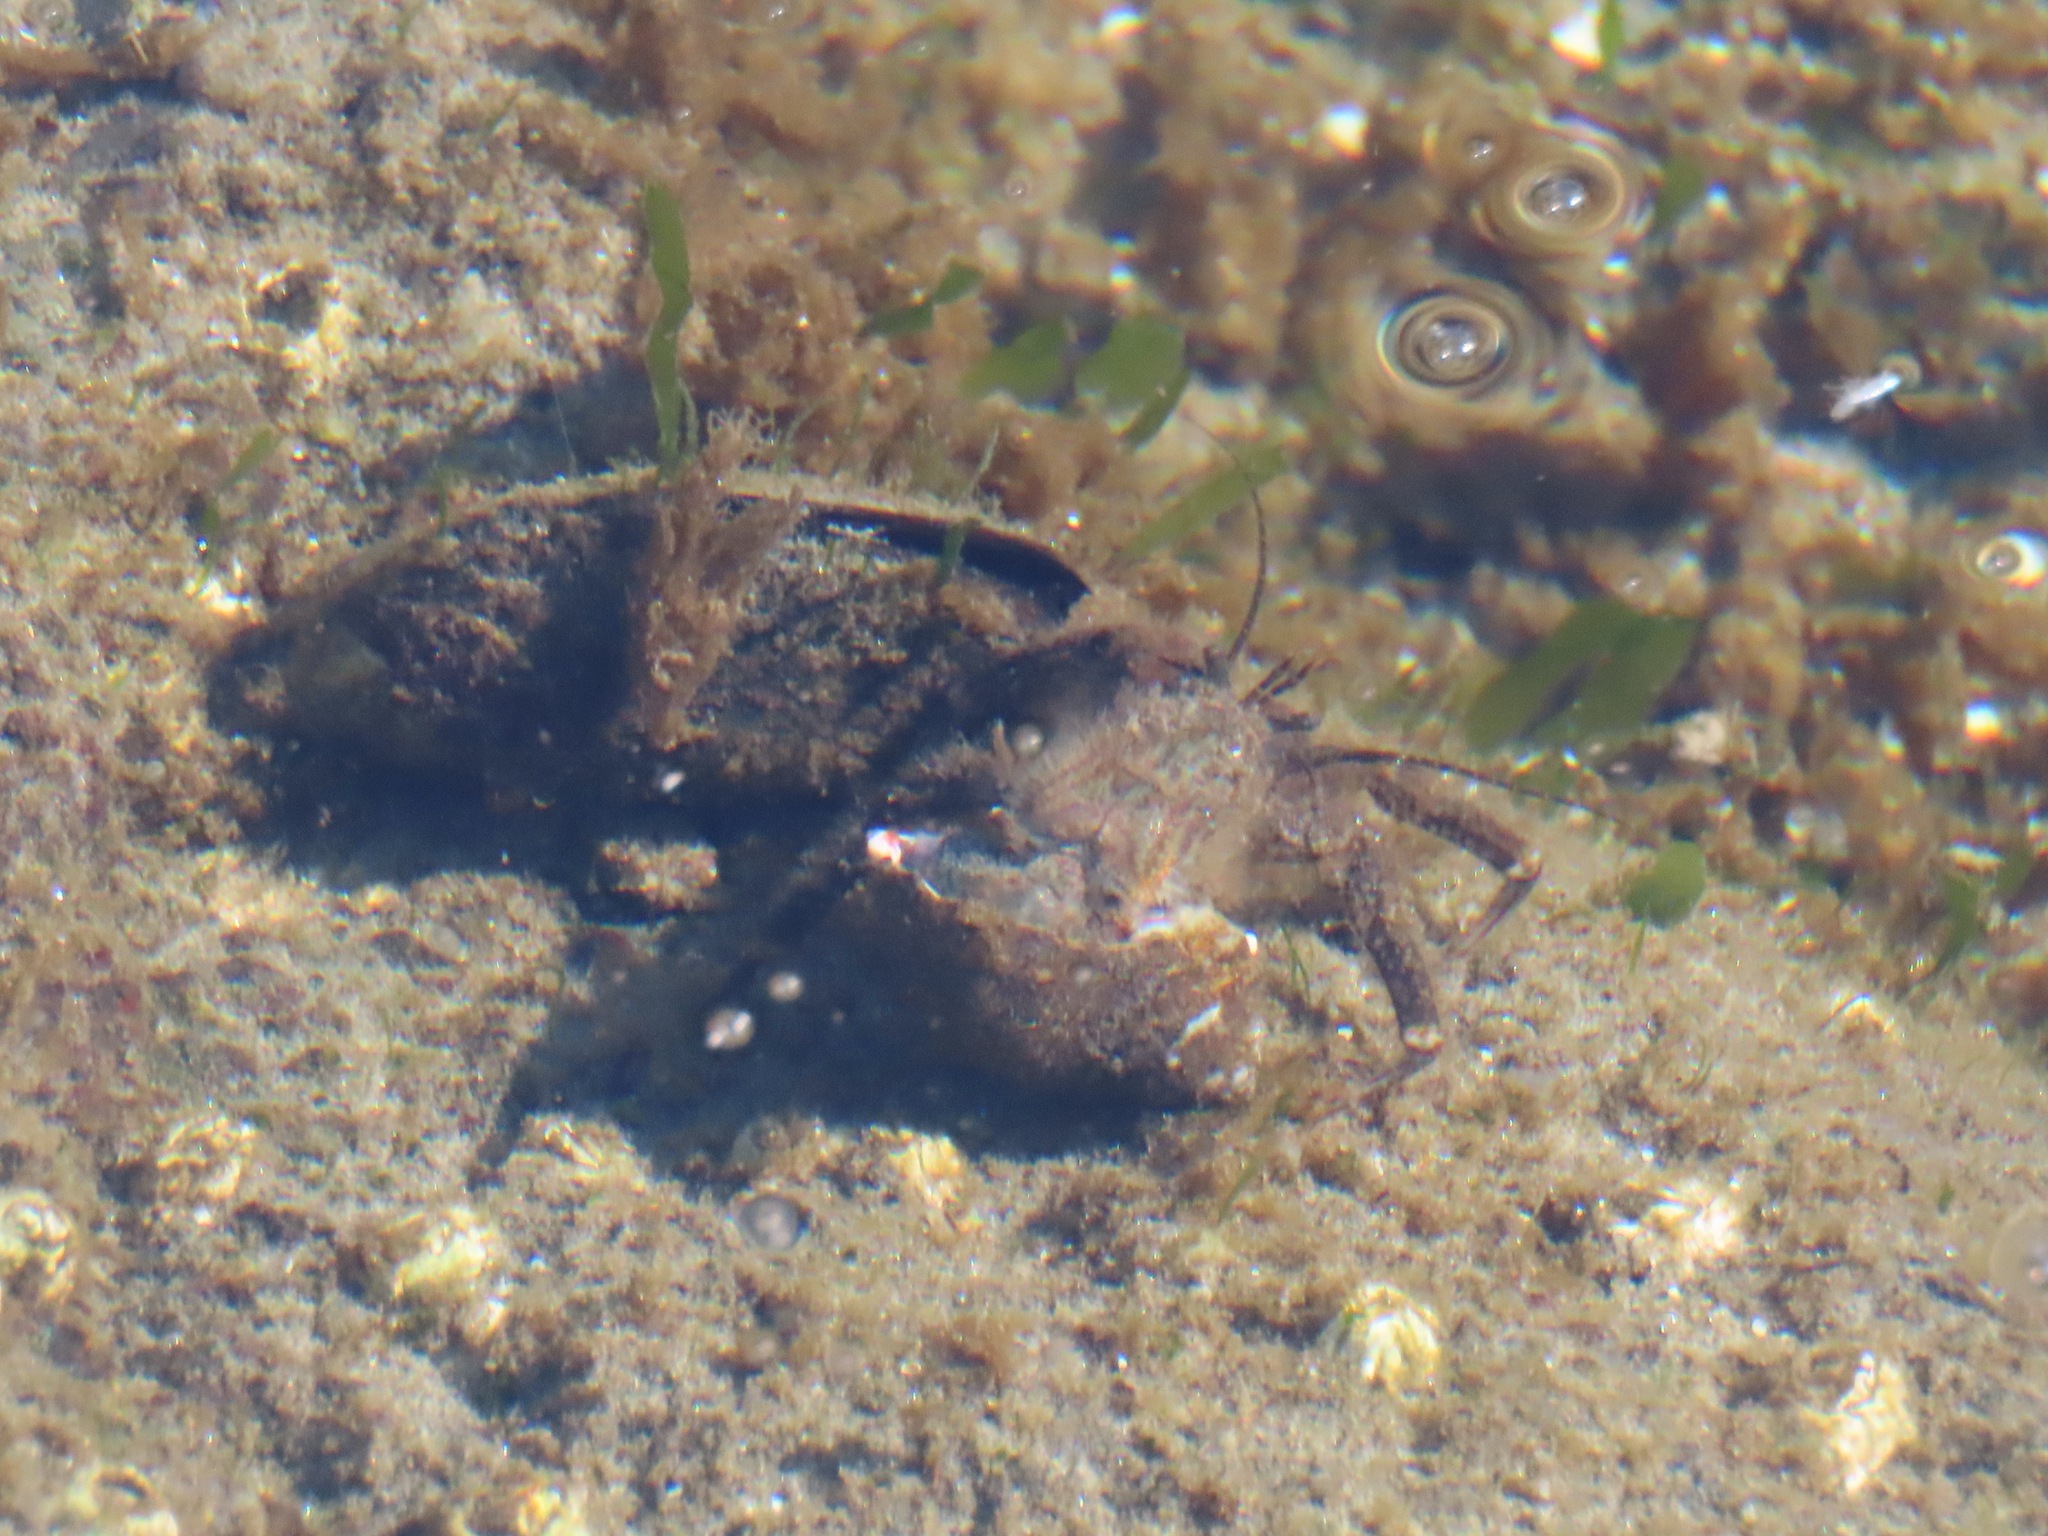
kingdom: Animalia
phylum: Arthropoda
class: Malacostraca
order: Decapoda
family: Paguridae
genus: Pagurus
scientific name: Pagurus hirsutiusculus
